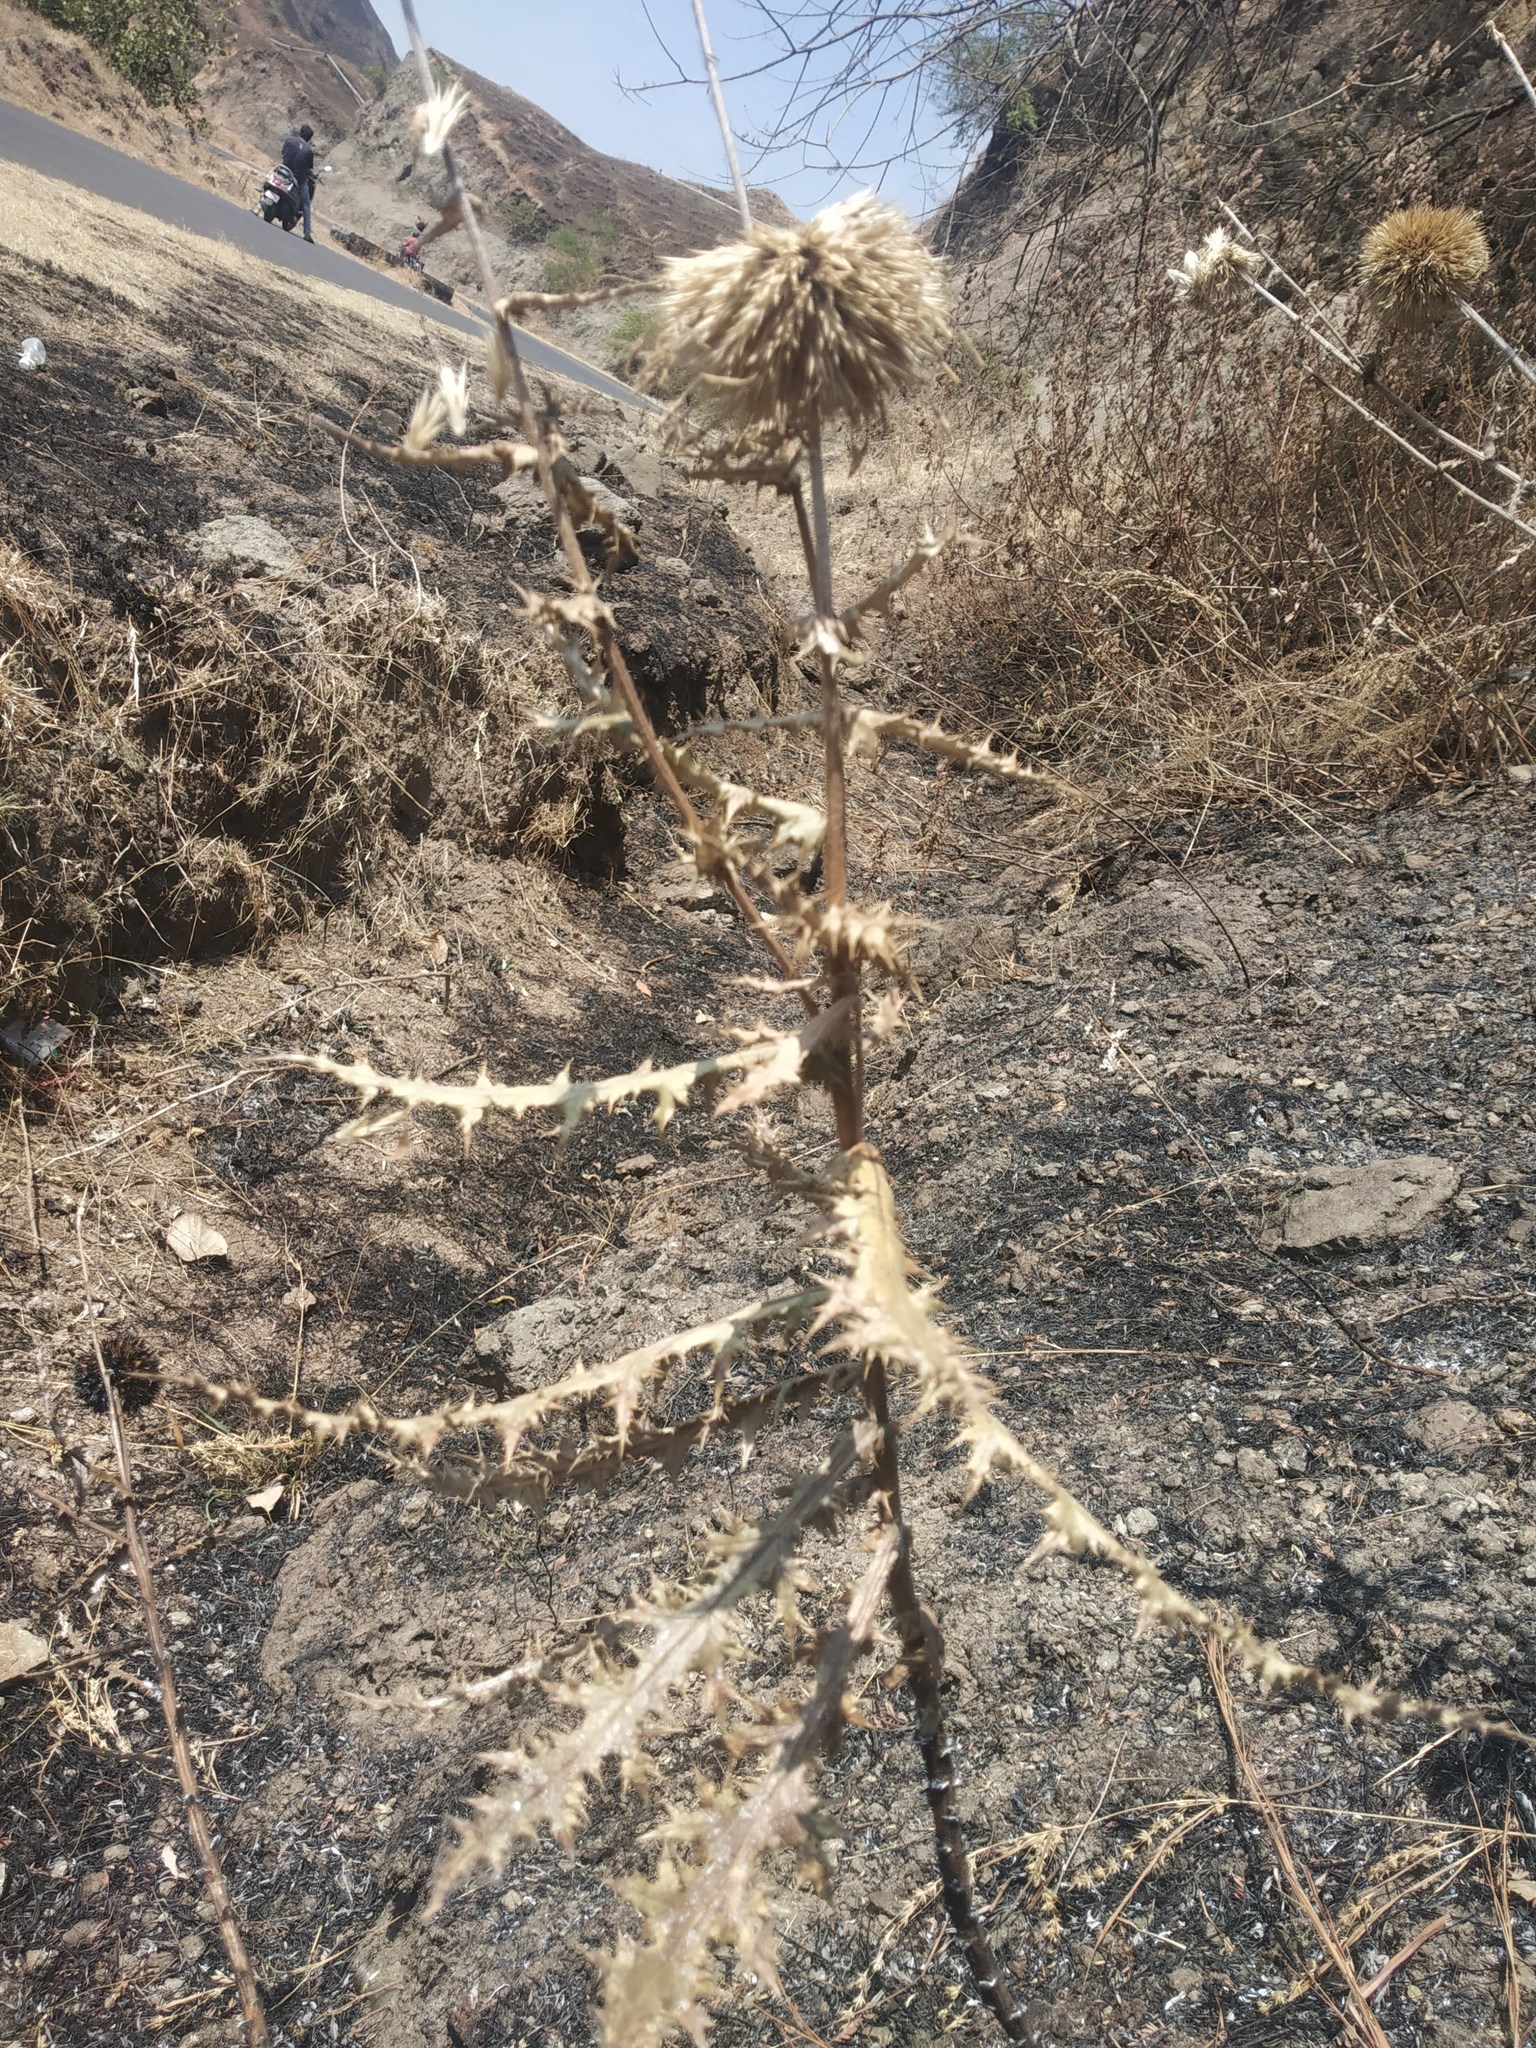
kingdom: Plantae
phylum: Tracheophyta
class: Magnoliopsida
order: Asterales
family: Asteraceae
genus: Echinops
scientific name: Echinops sahyadricus
